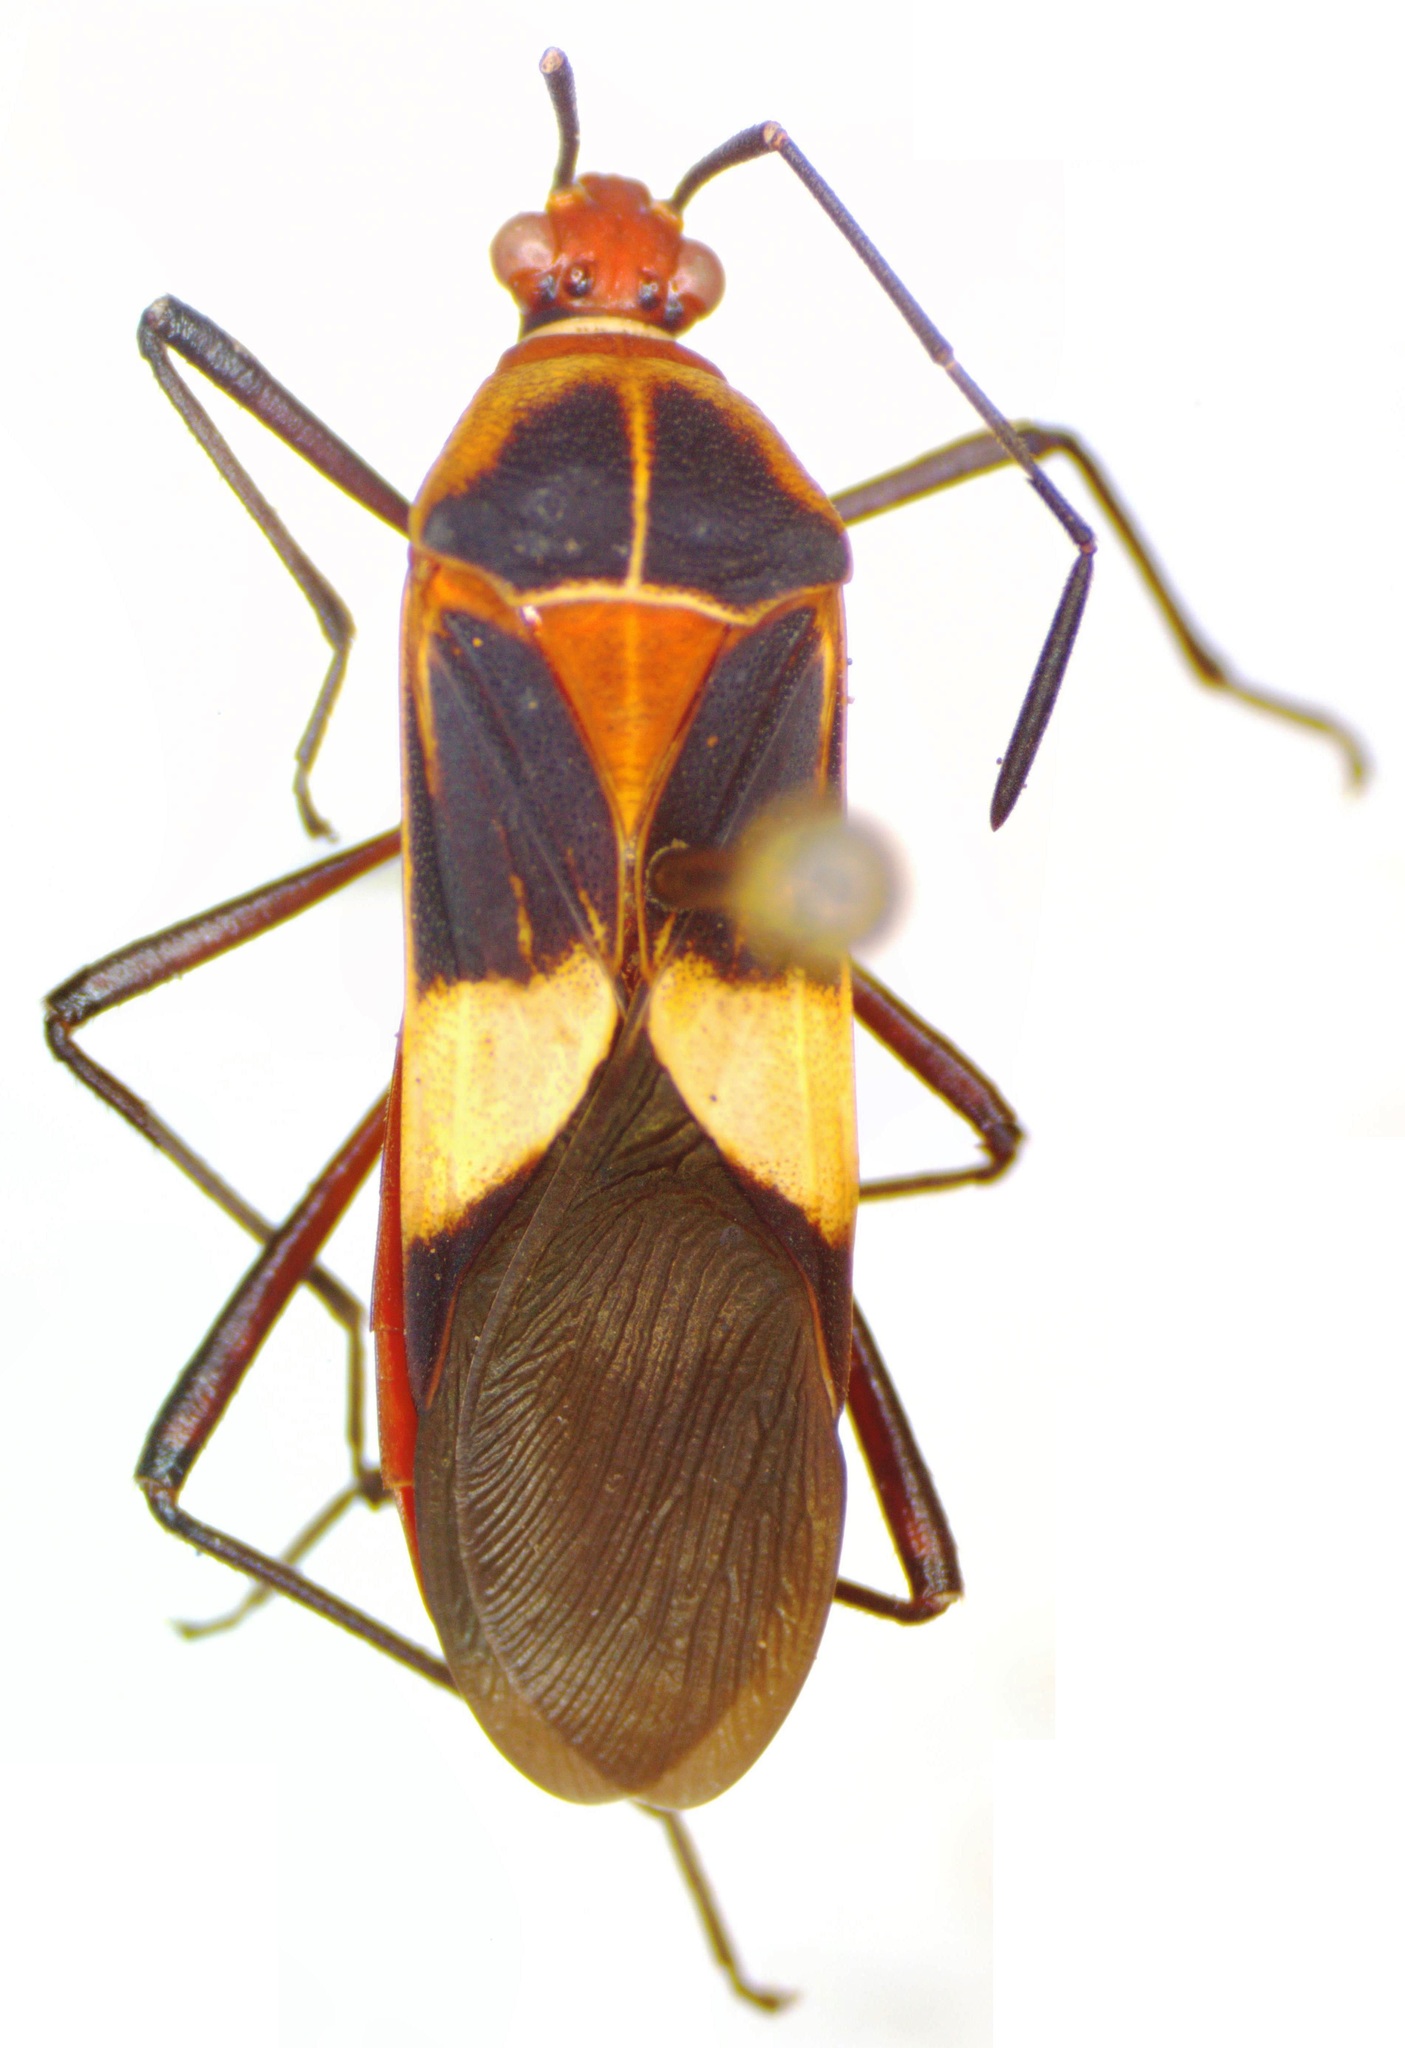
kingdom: Animalia
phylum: Arthropoda
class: Insecta
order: Hemiptera
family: Coreidae
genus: Hypselonotus
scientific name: Hypselonotus interruptus
